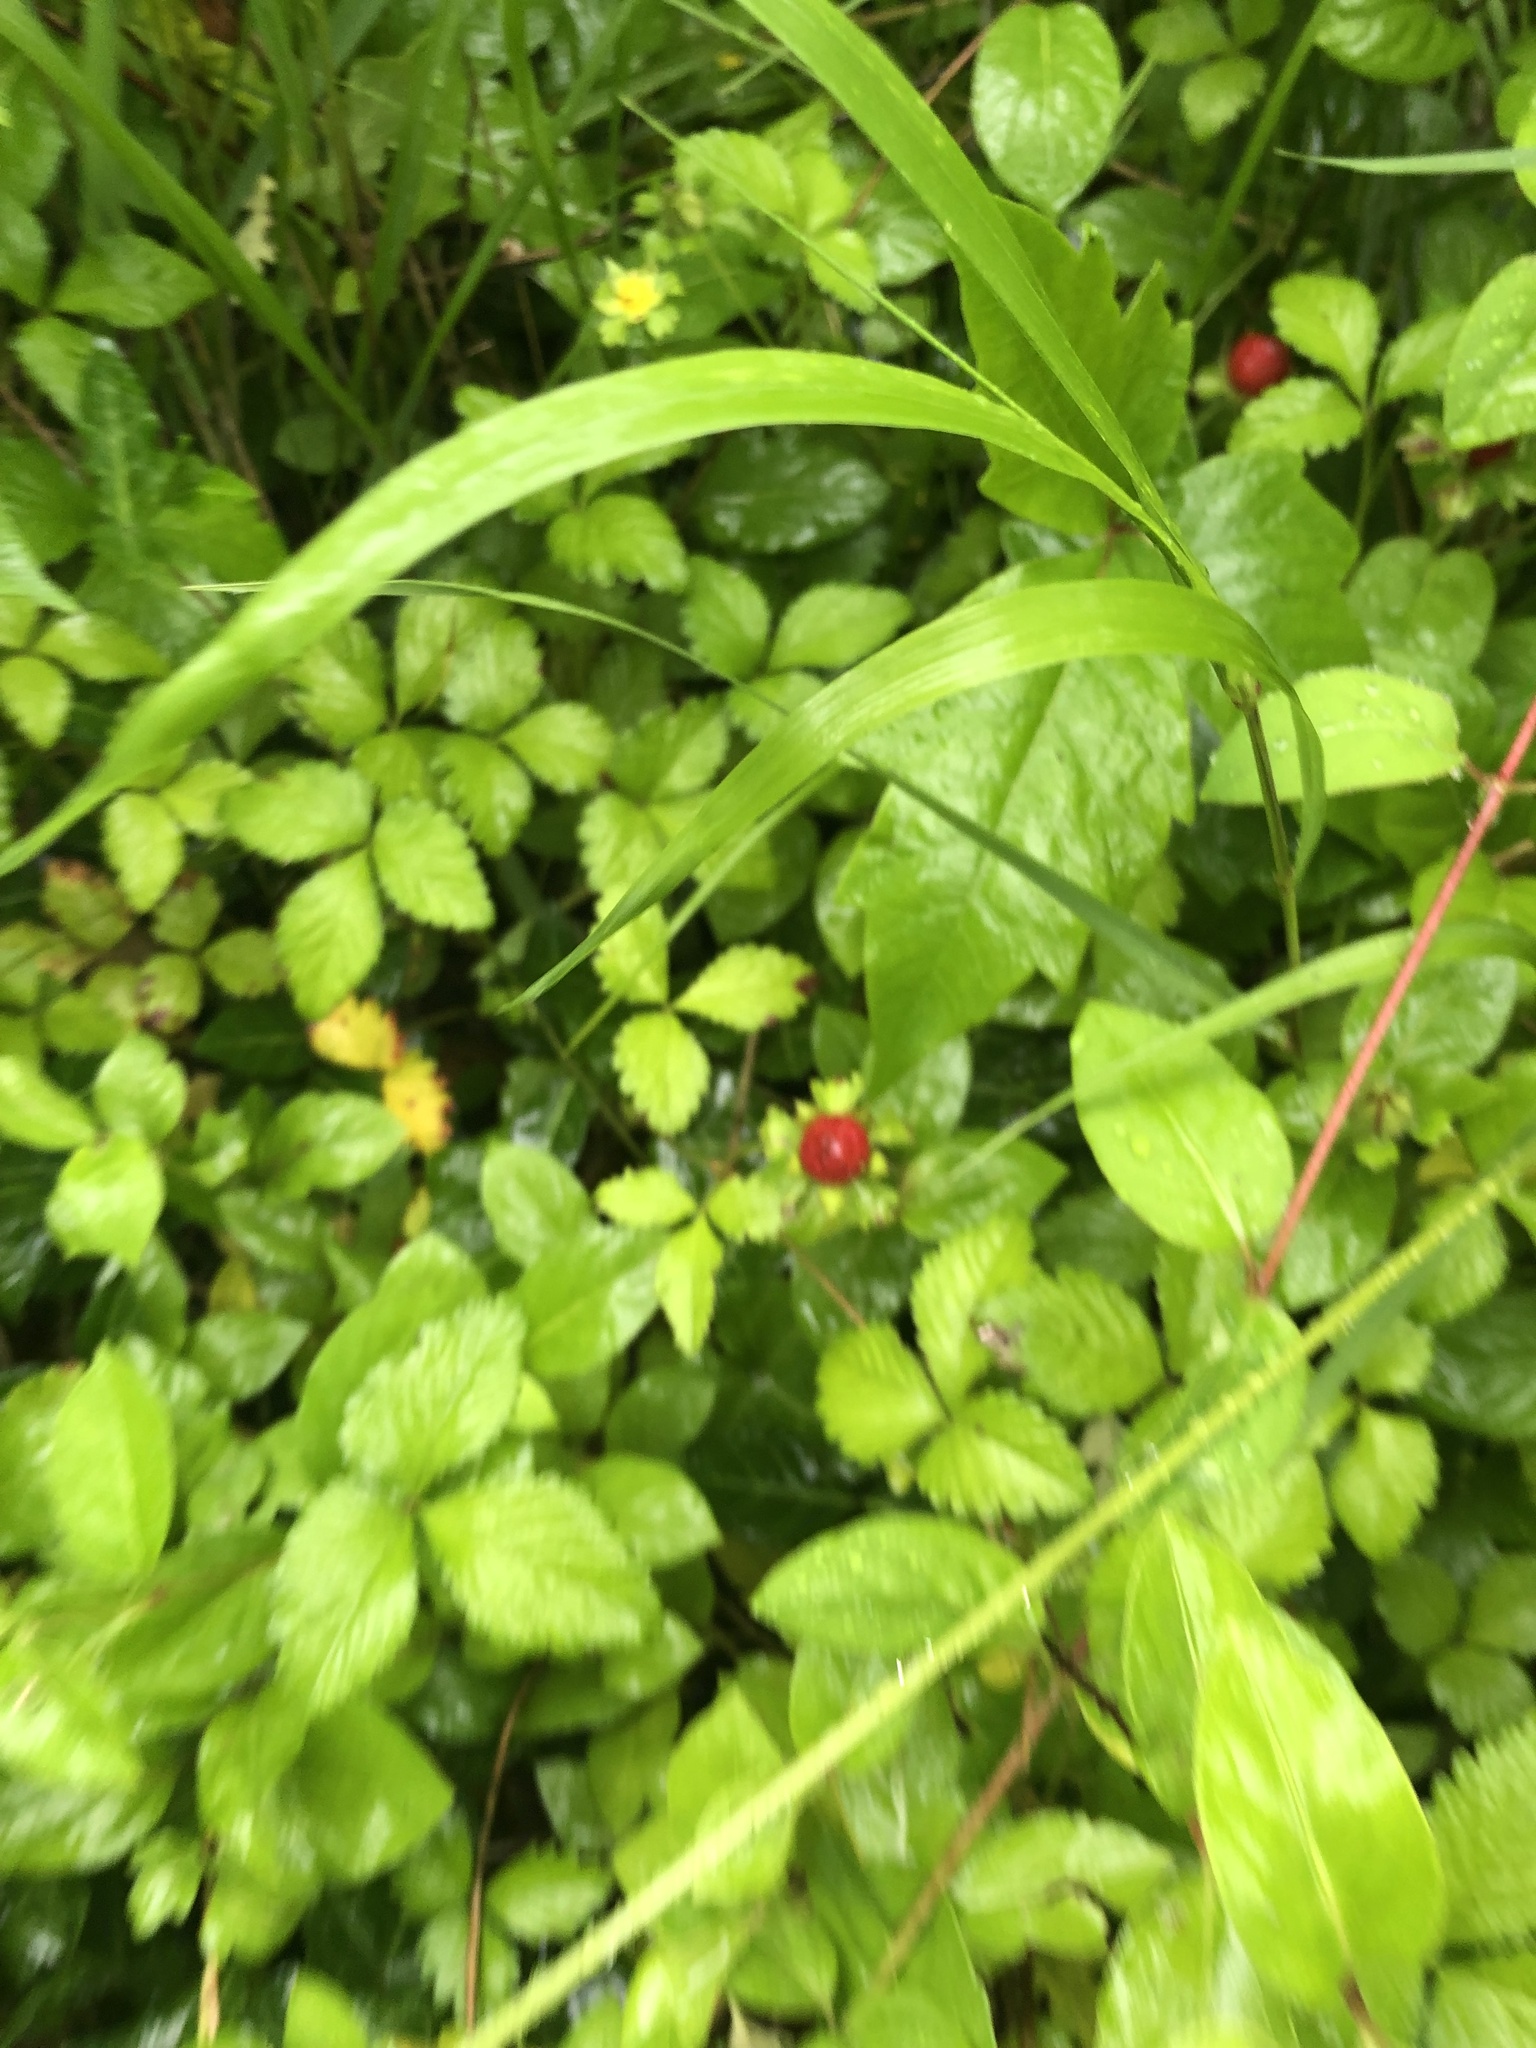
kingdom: Plantae
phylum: Tracheophyta
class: Magnoliopsida
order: Rosales
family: Rosaceae
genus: Potentilla
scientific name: Potentilla indica
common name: Yellow-flowered strawberry
